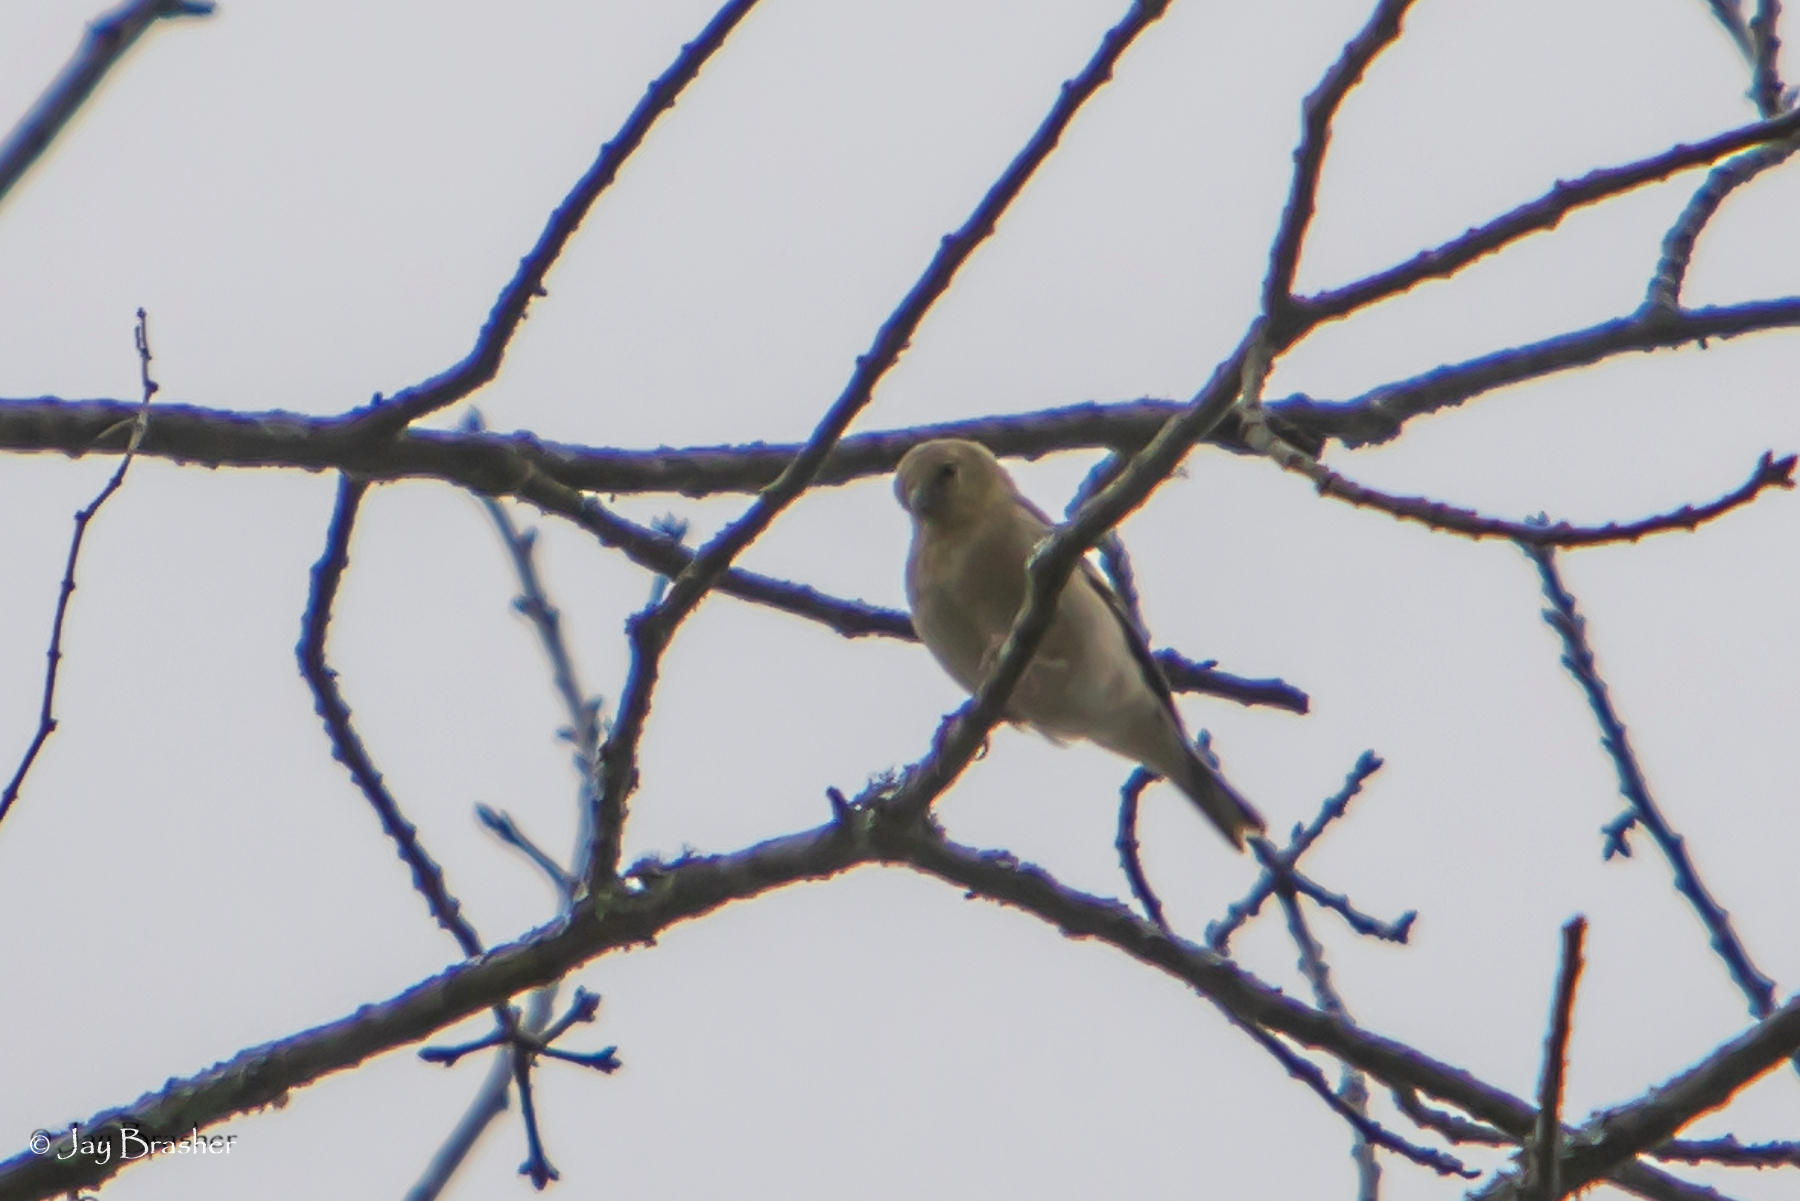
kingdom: Animalia
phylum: Chordata
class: Aves
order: Passeriformes
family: Fringillidae
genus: Spinus
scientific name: Spinus tristis
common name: American goldfinch
